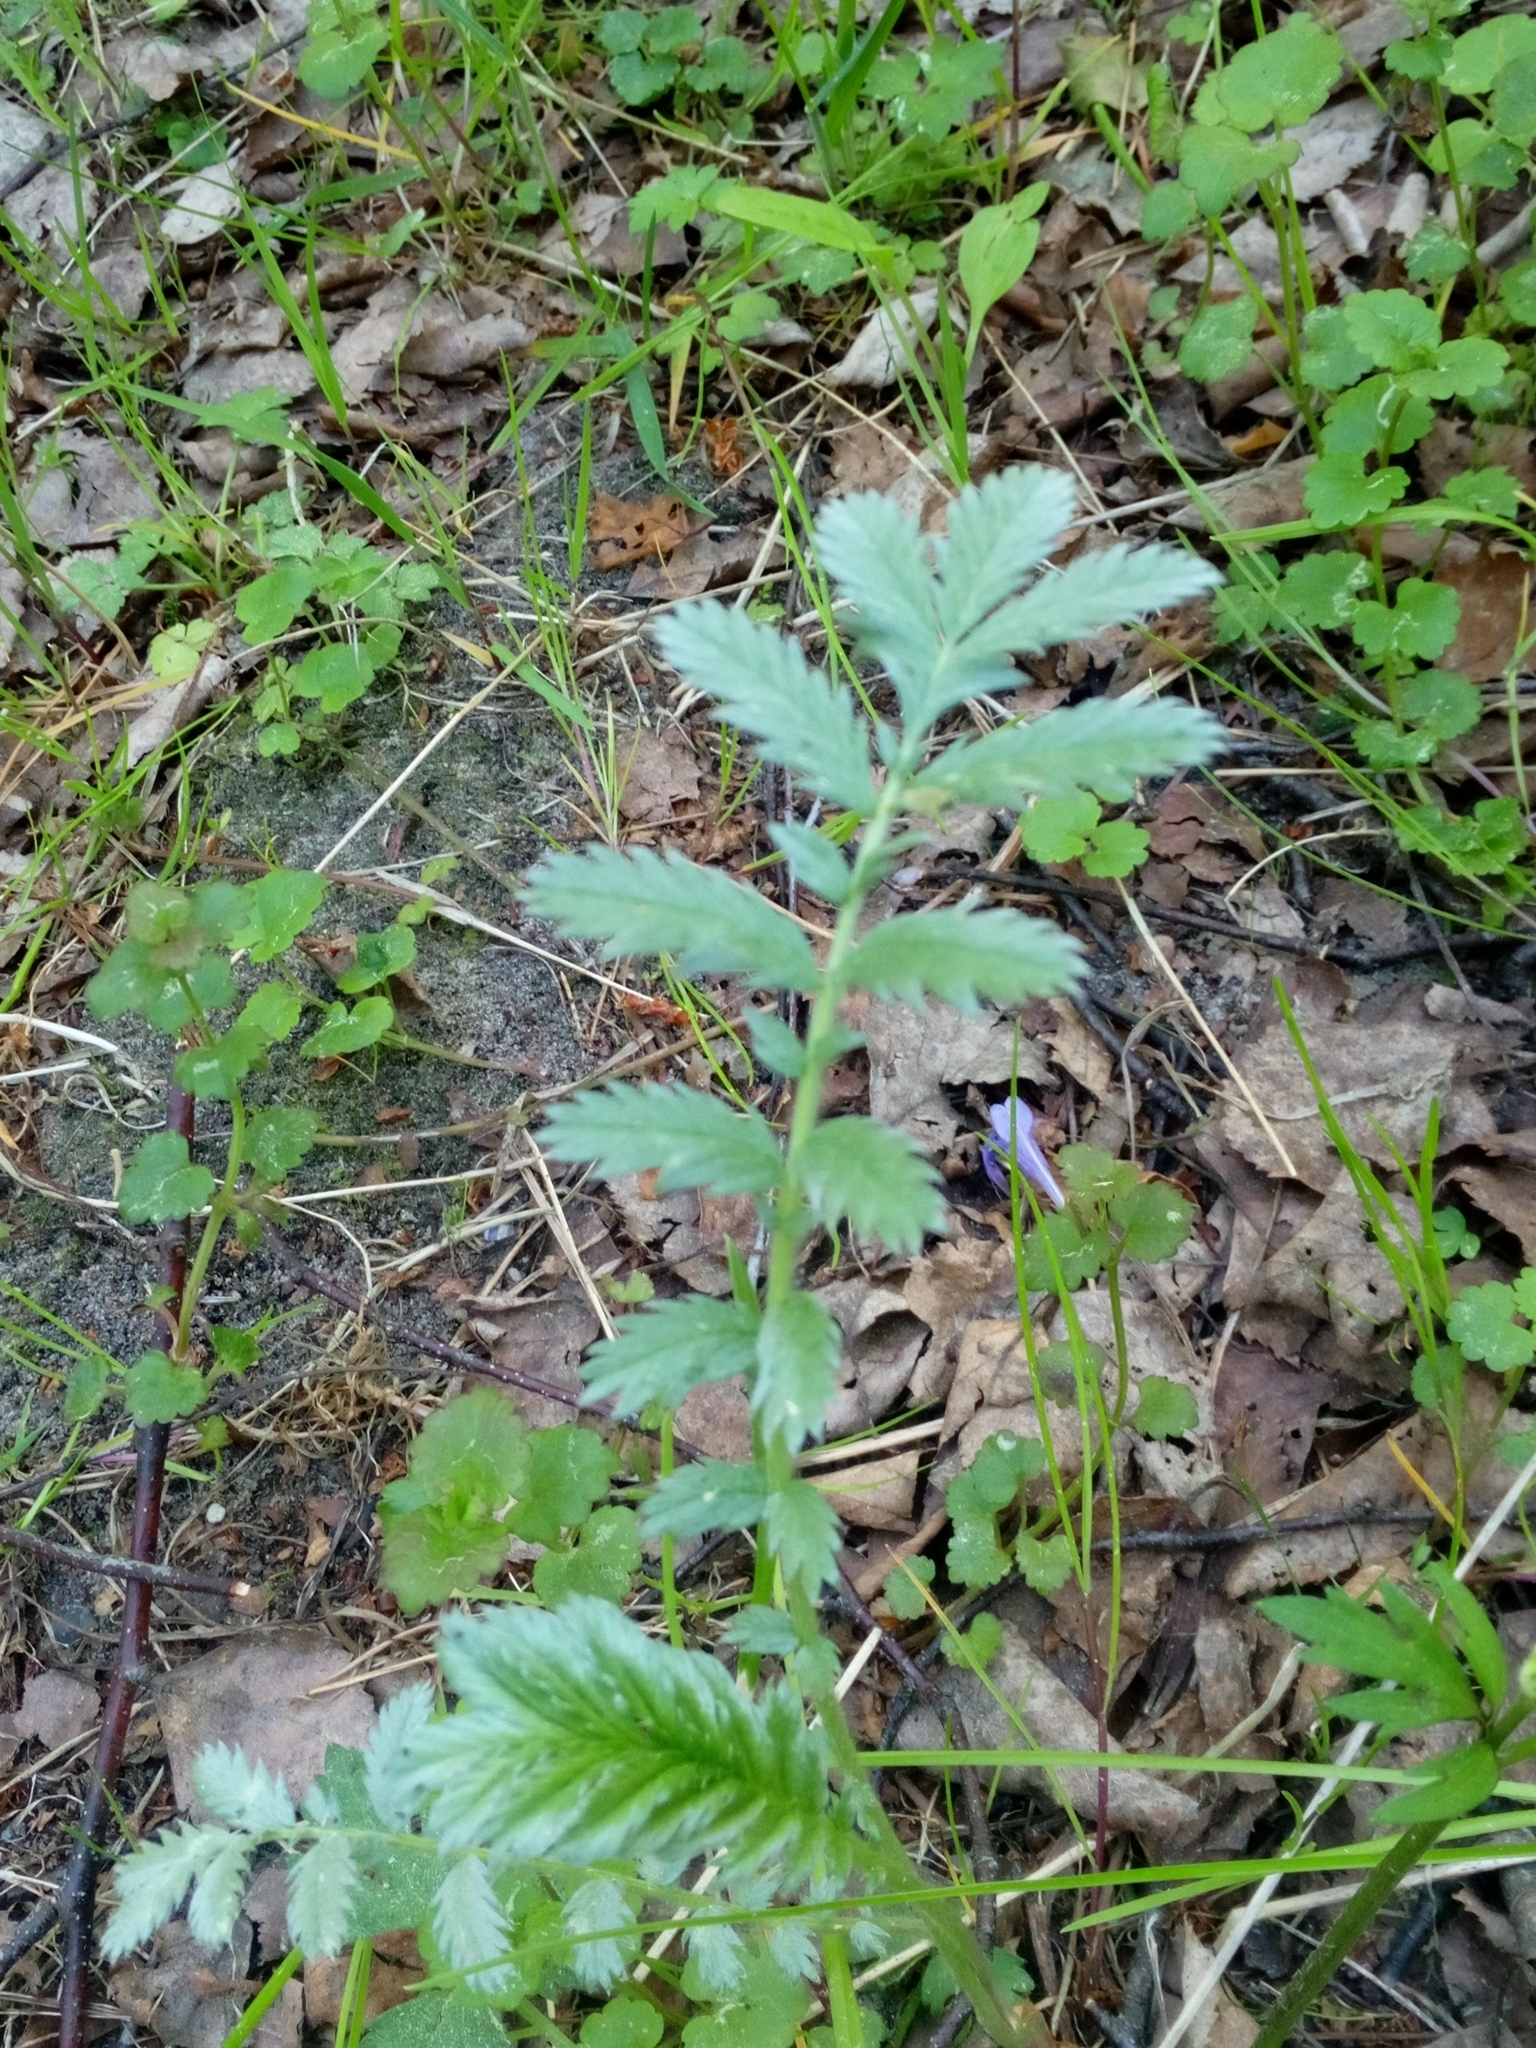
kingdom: Plantae
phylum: Tracheophyta
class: Magnoliopsida
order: Rosales
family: Rosaceae
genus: Argentina
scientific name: Argentina anserina
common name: Common silverweed
